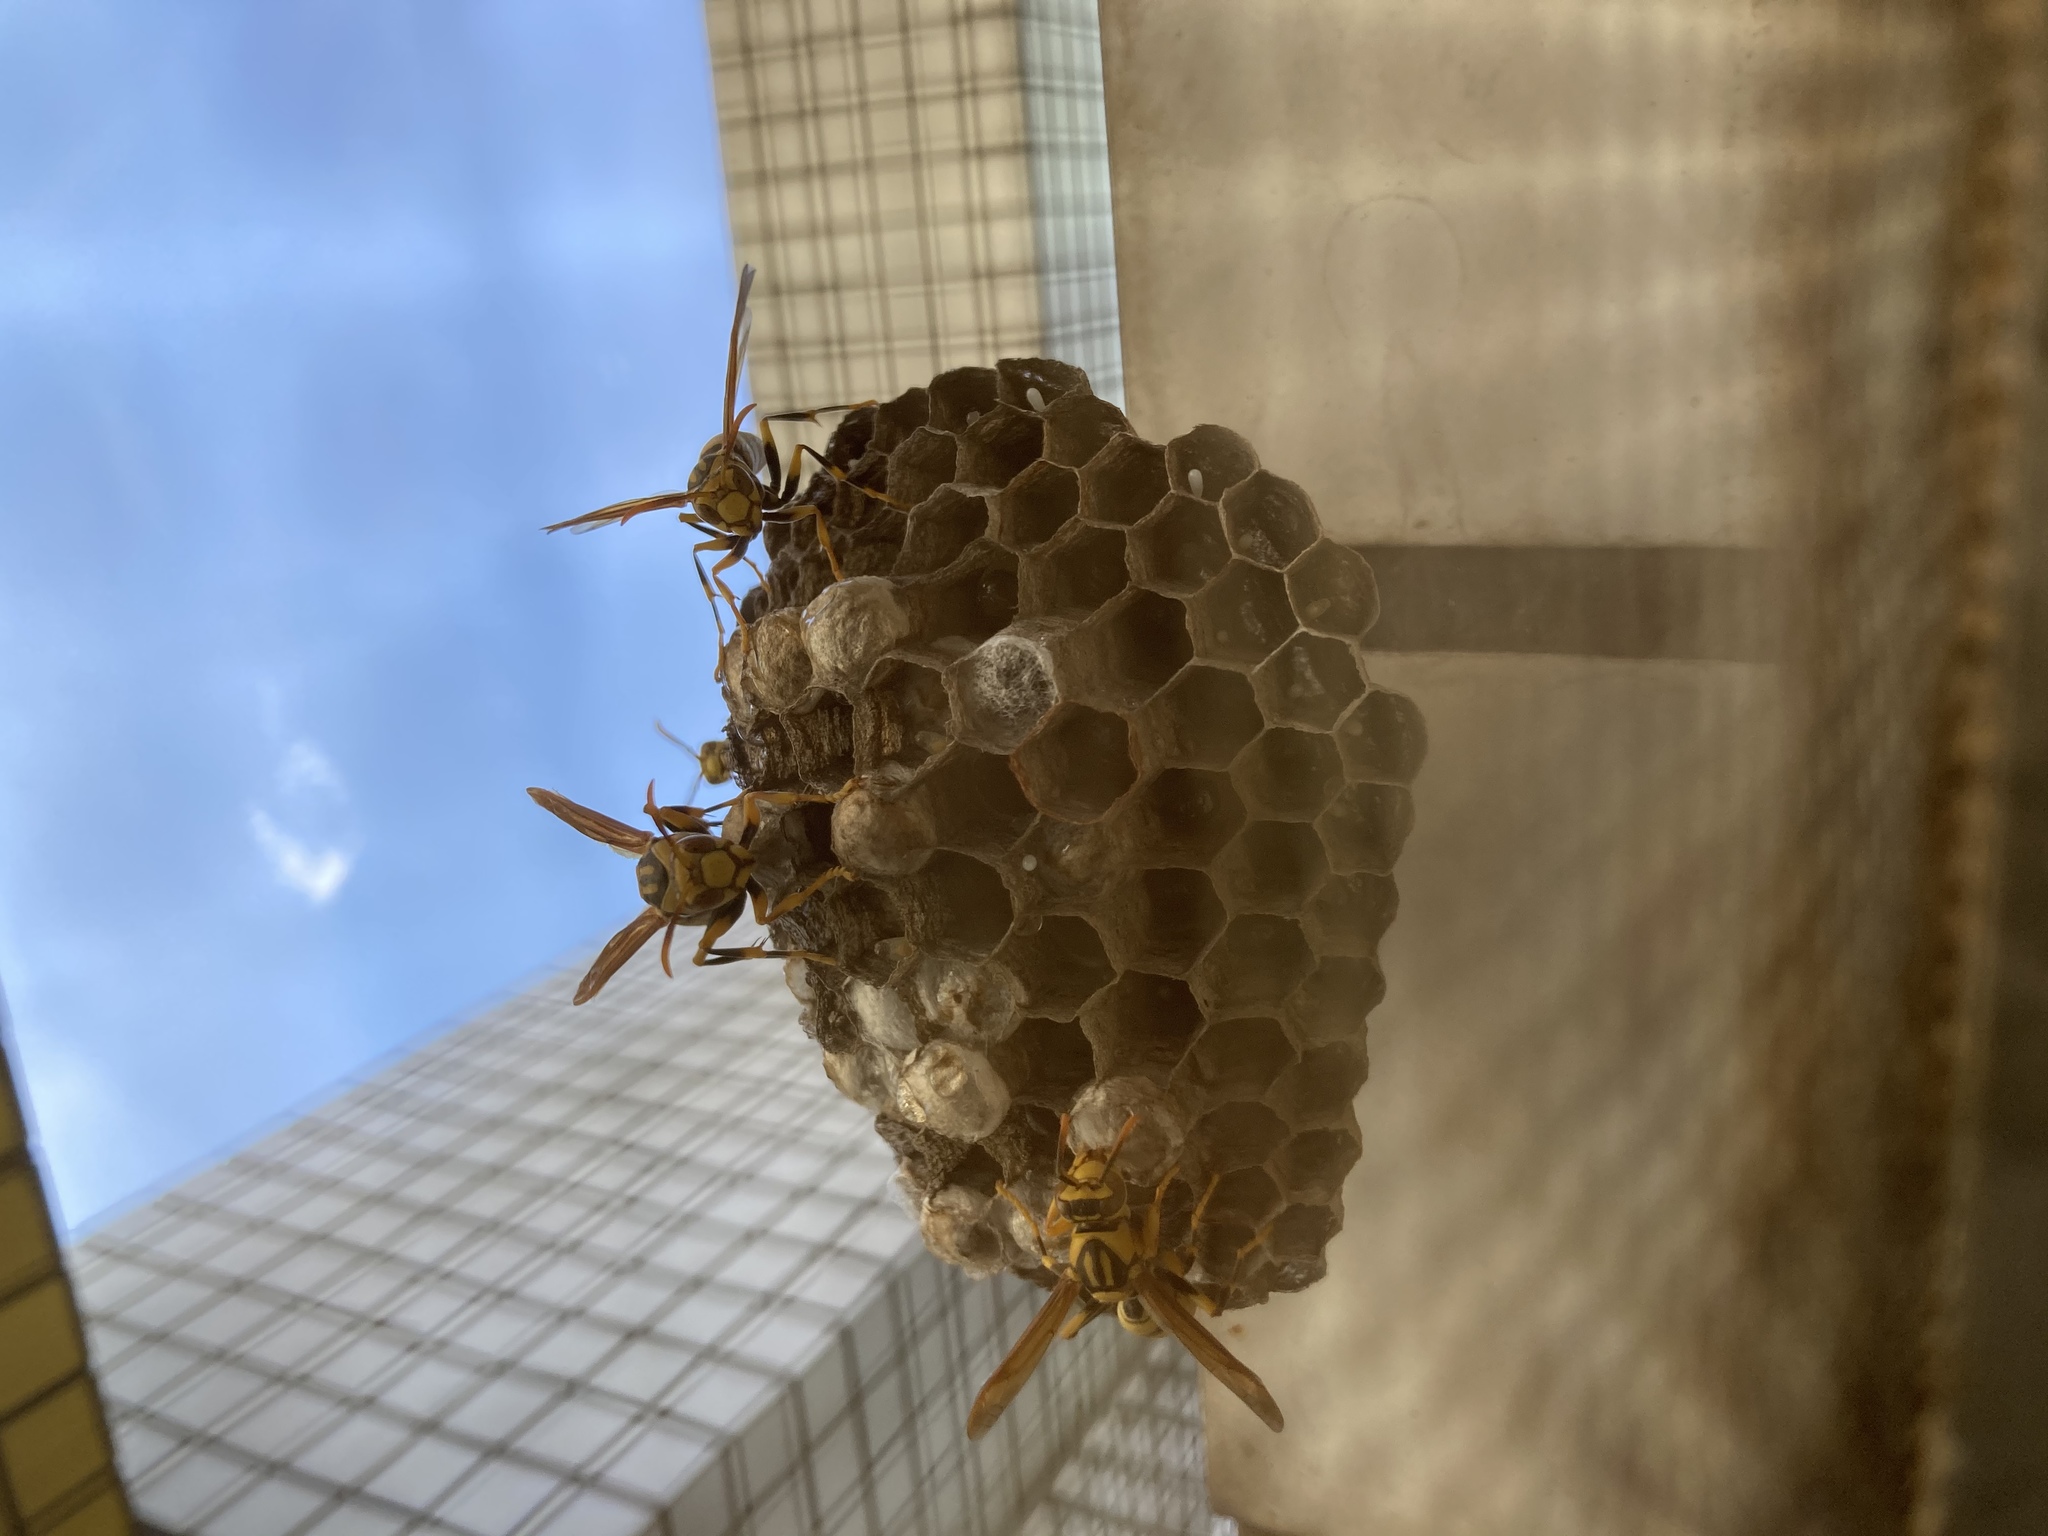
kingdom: Animalia
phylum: Arthropoda
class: Insecta
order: Hymenoptera
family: Eumenidae
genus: Polistes
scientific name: Polistes rothneyi
